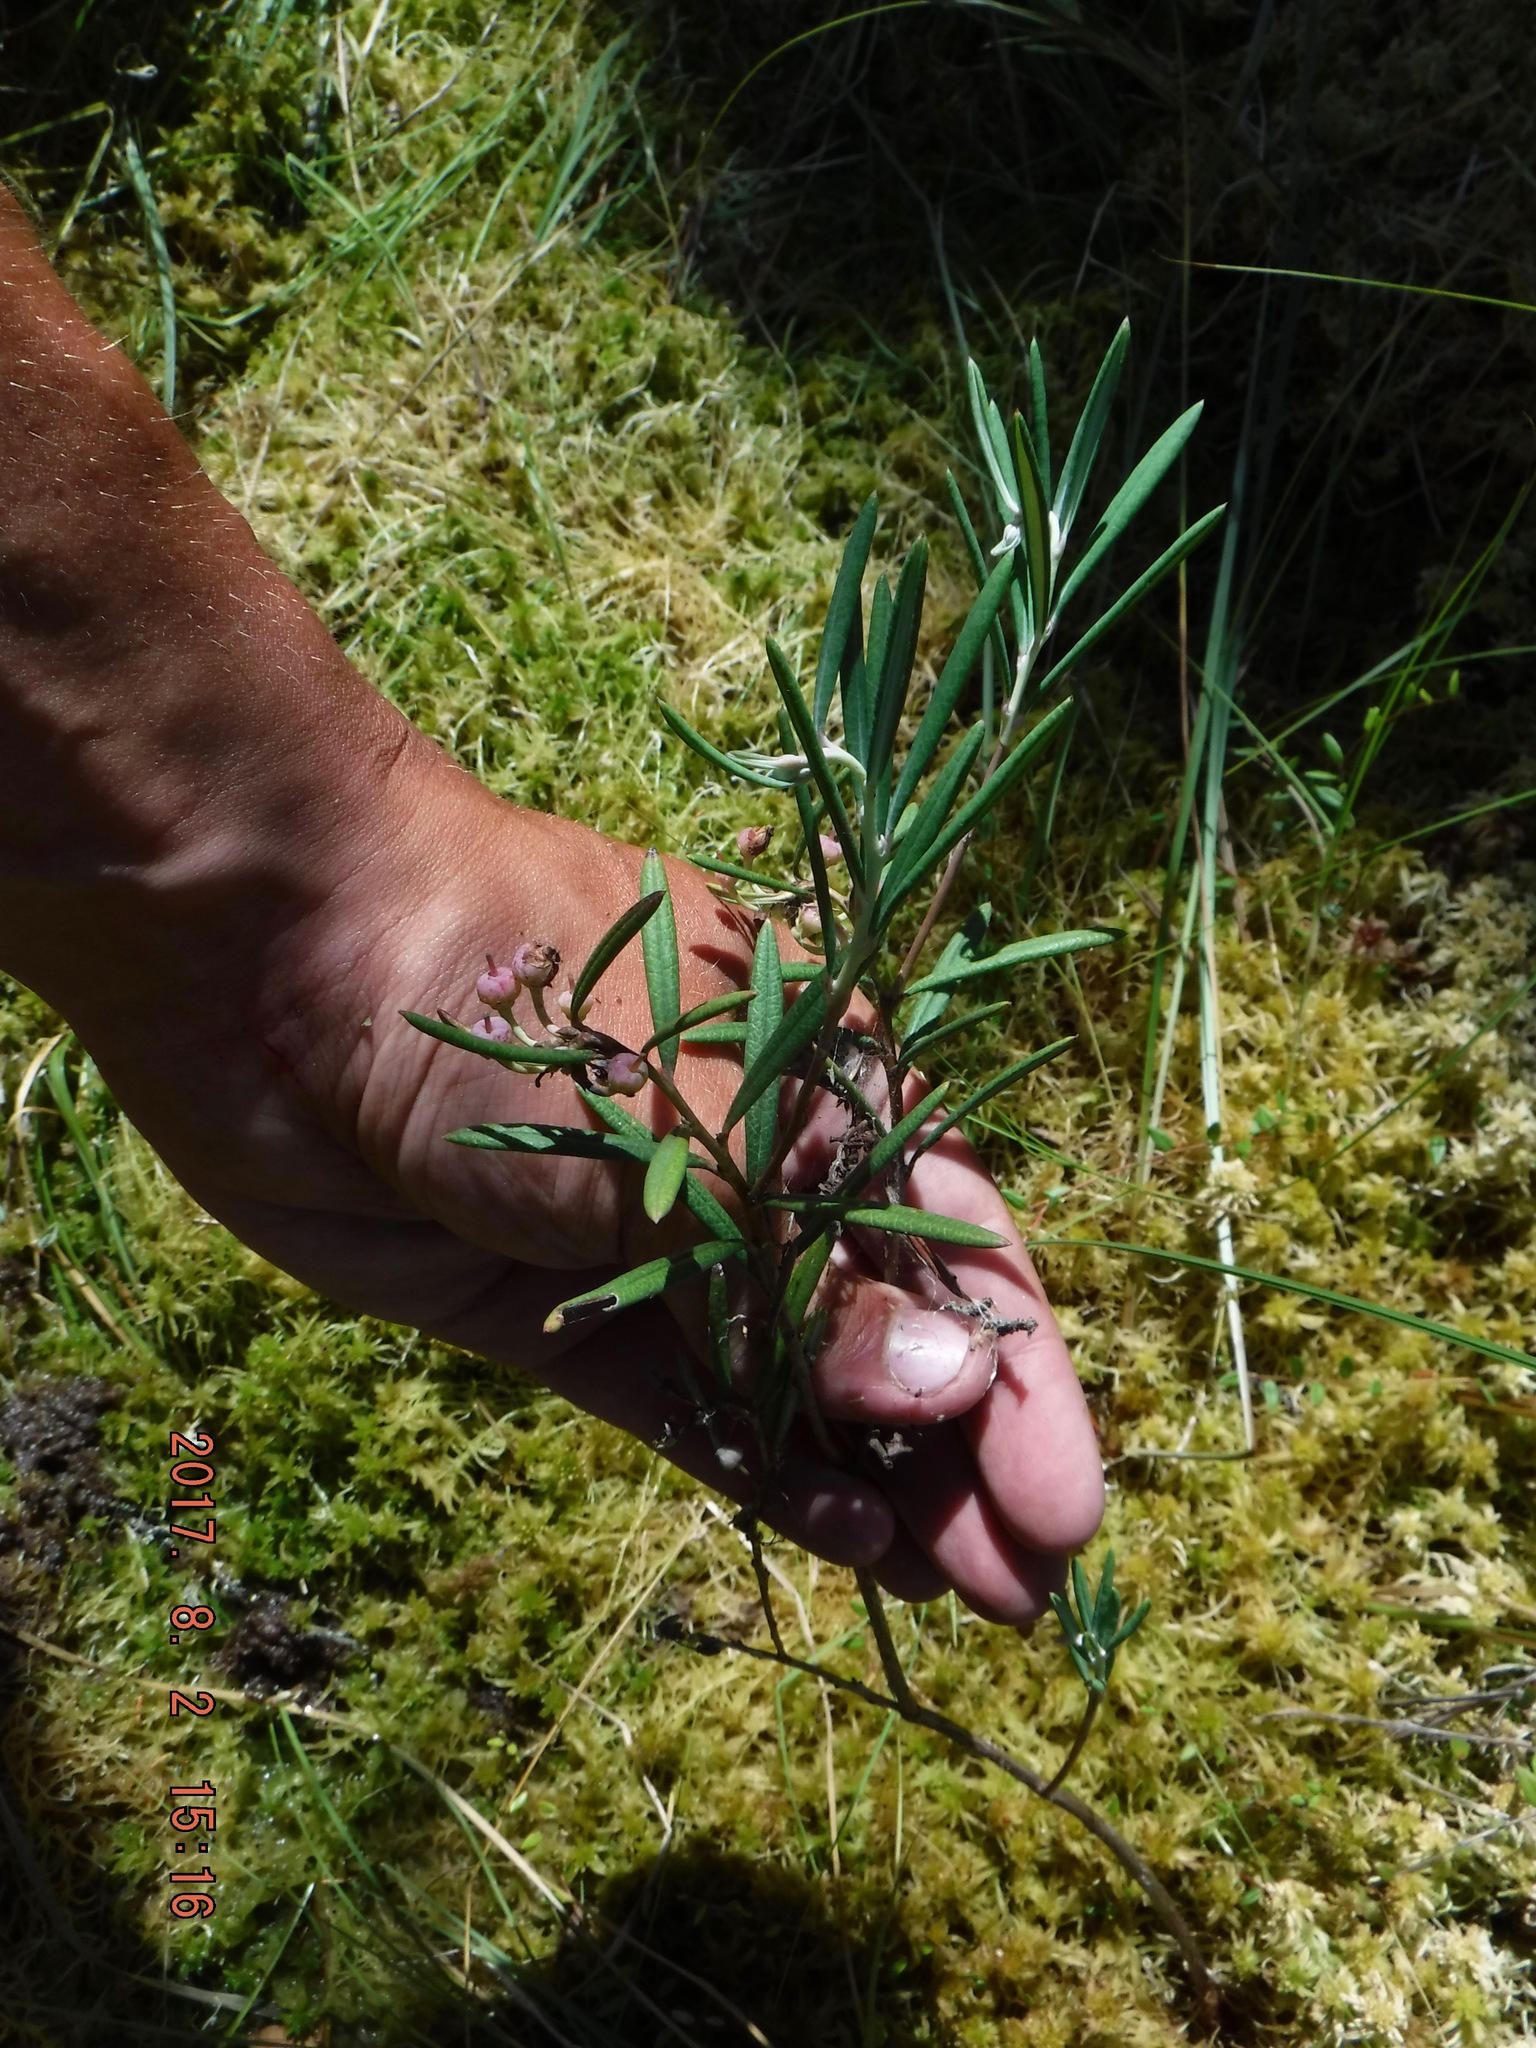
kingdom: Plantae
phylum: Tracheophyta
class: Magnoliopsida
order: Ericales
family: Ericaceae
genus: Andromeda
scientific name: Andromeda polifolia
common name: Bog-rosemary
